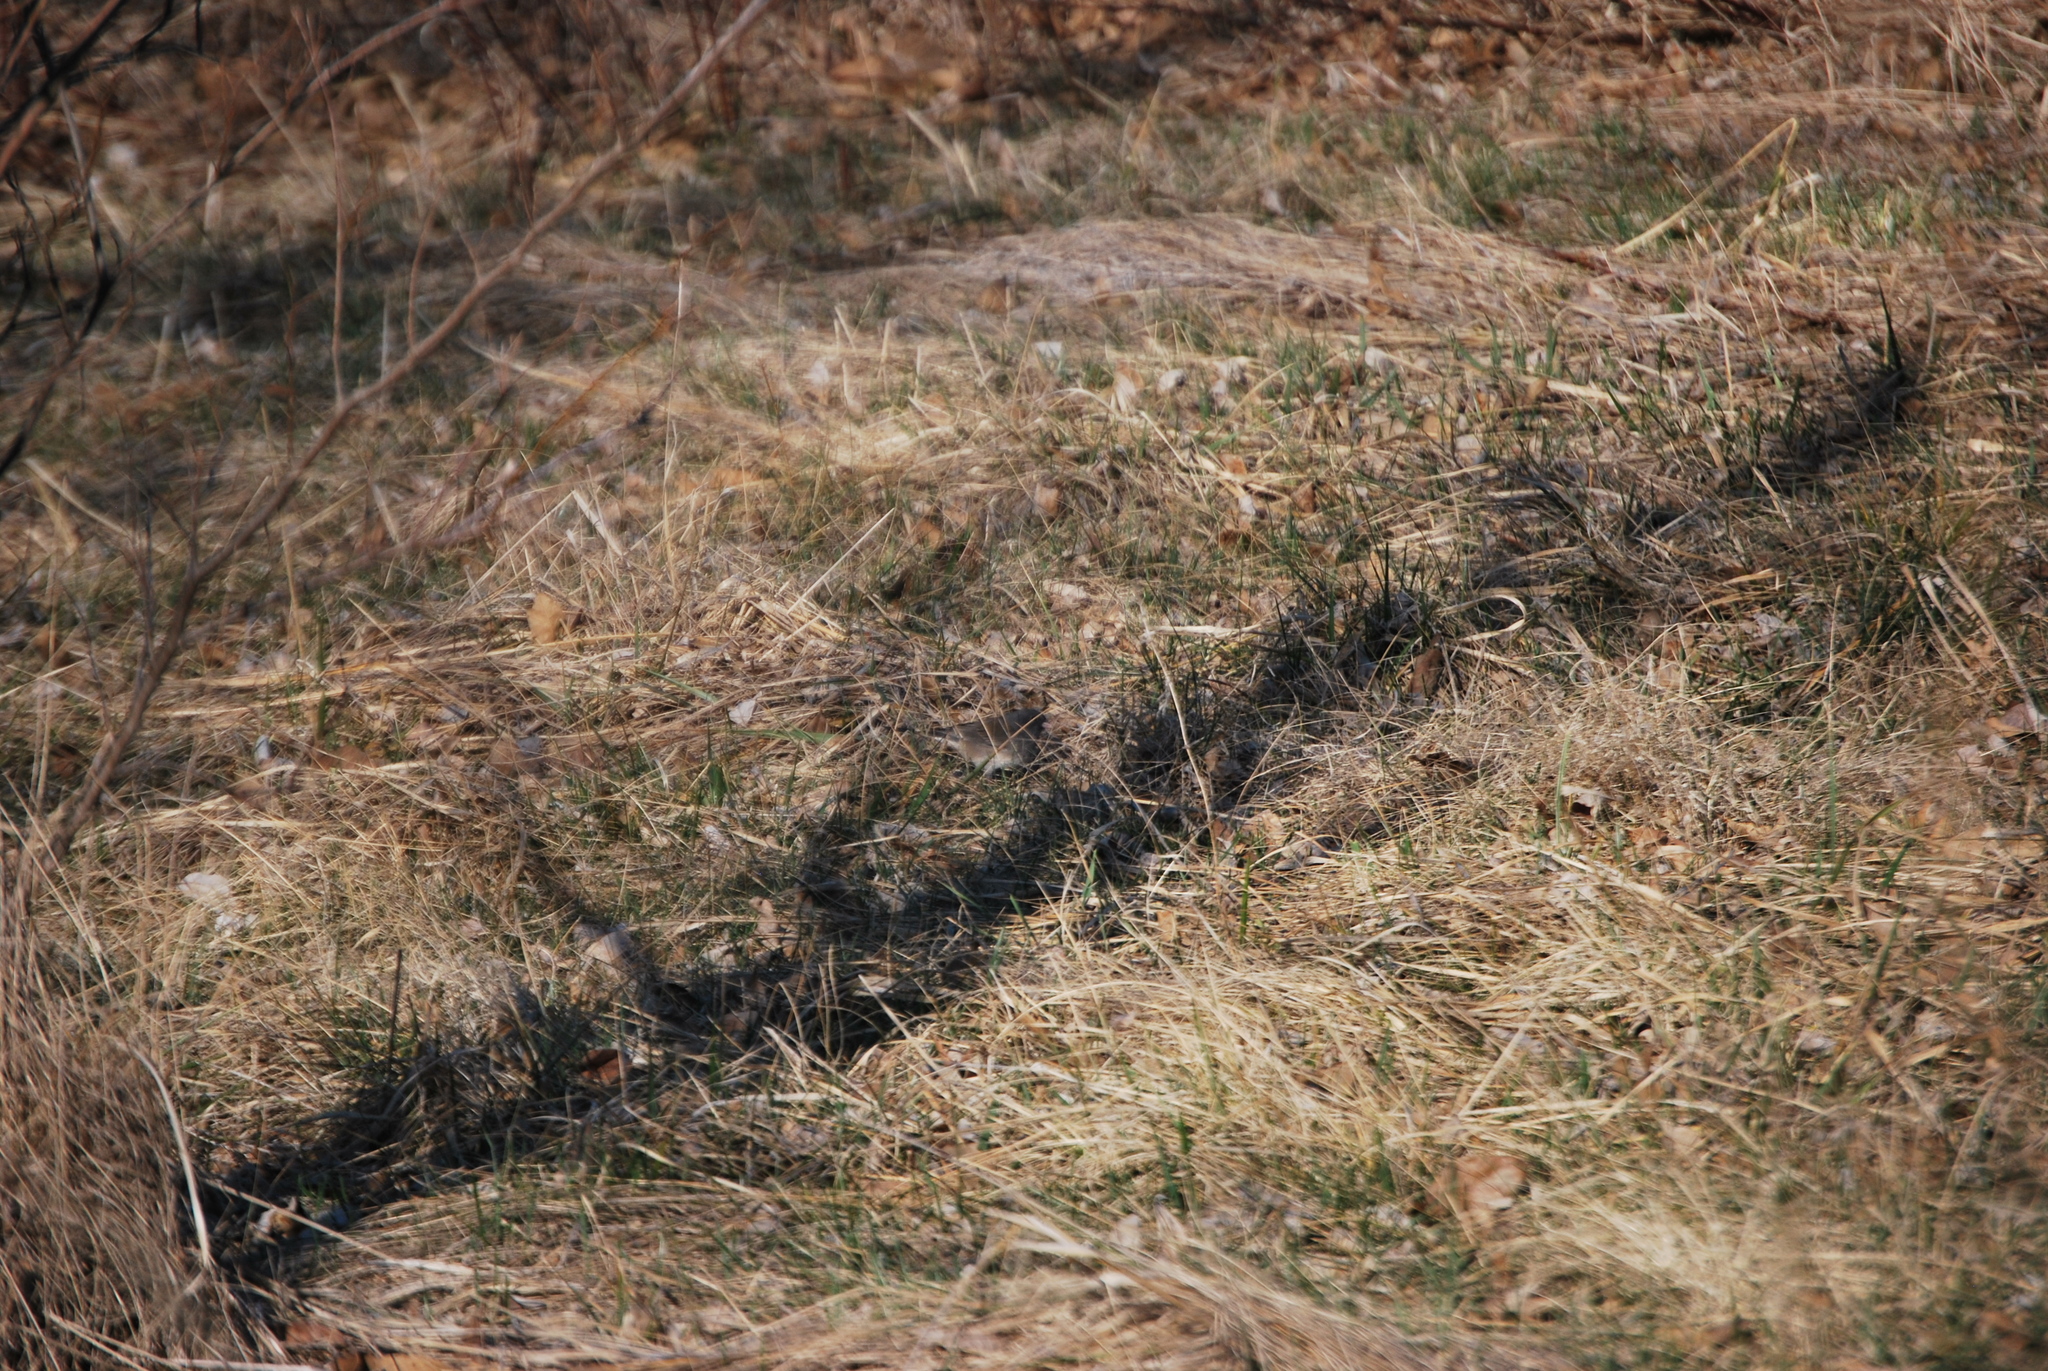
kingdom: Animalia
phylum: Chordata
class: Aves
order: Passeriformes
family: Passerellidae
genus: Junco
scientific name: Junco hyemalis
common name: Dark-eyed junco
